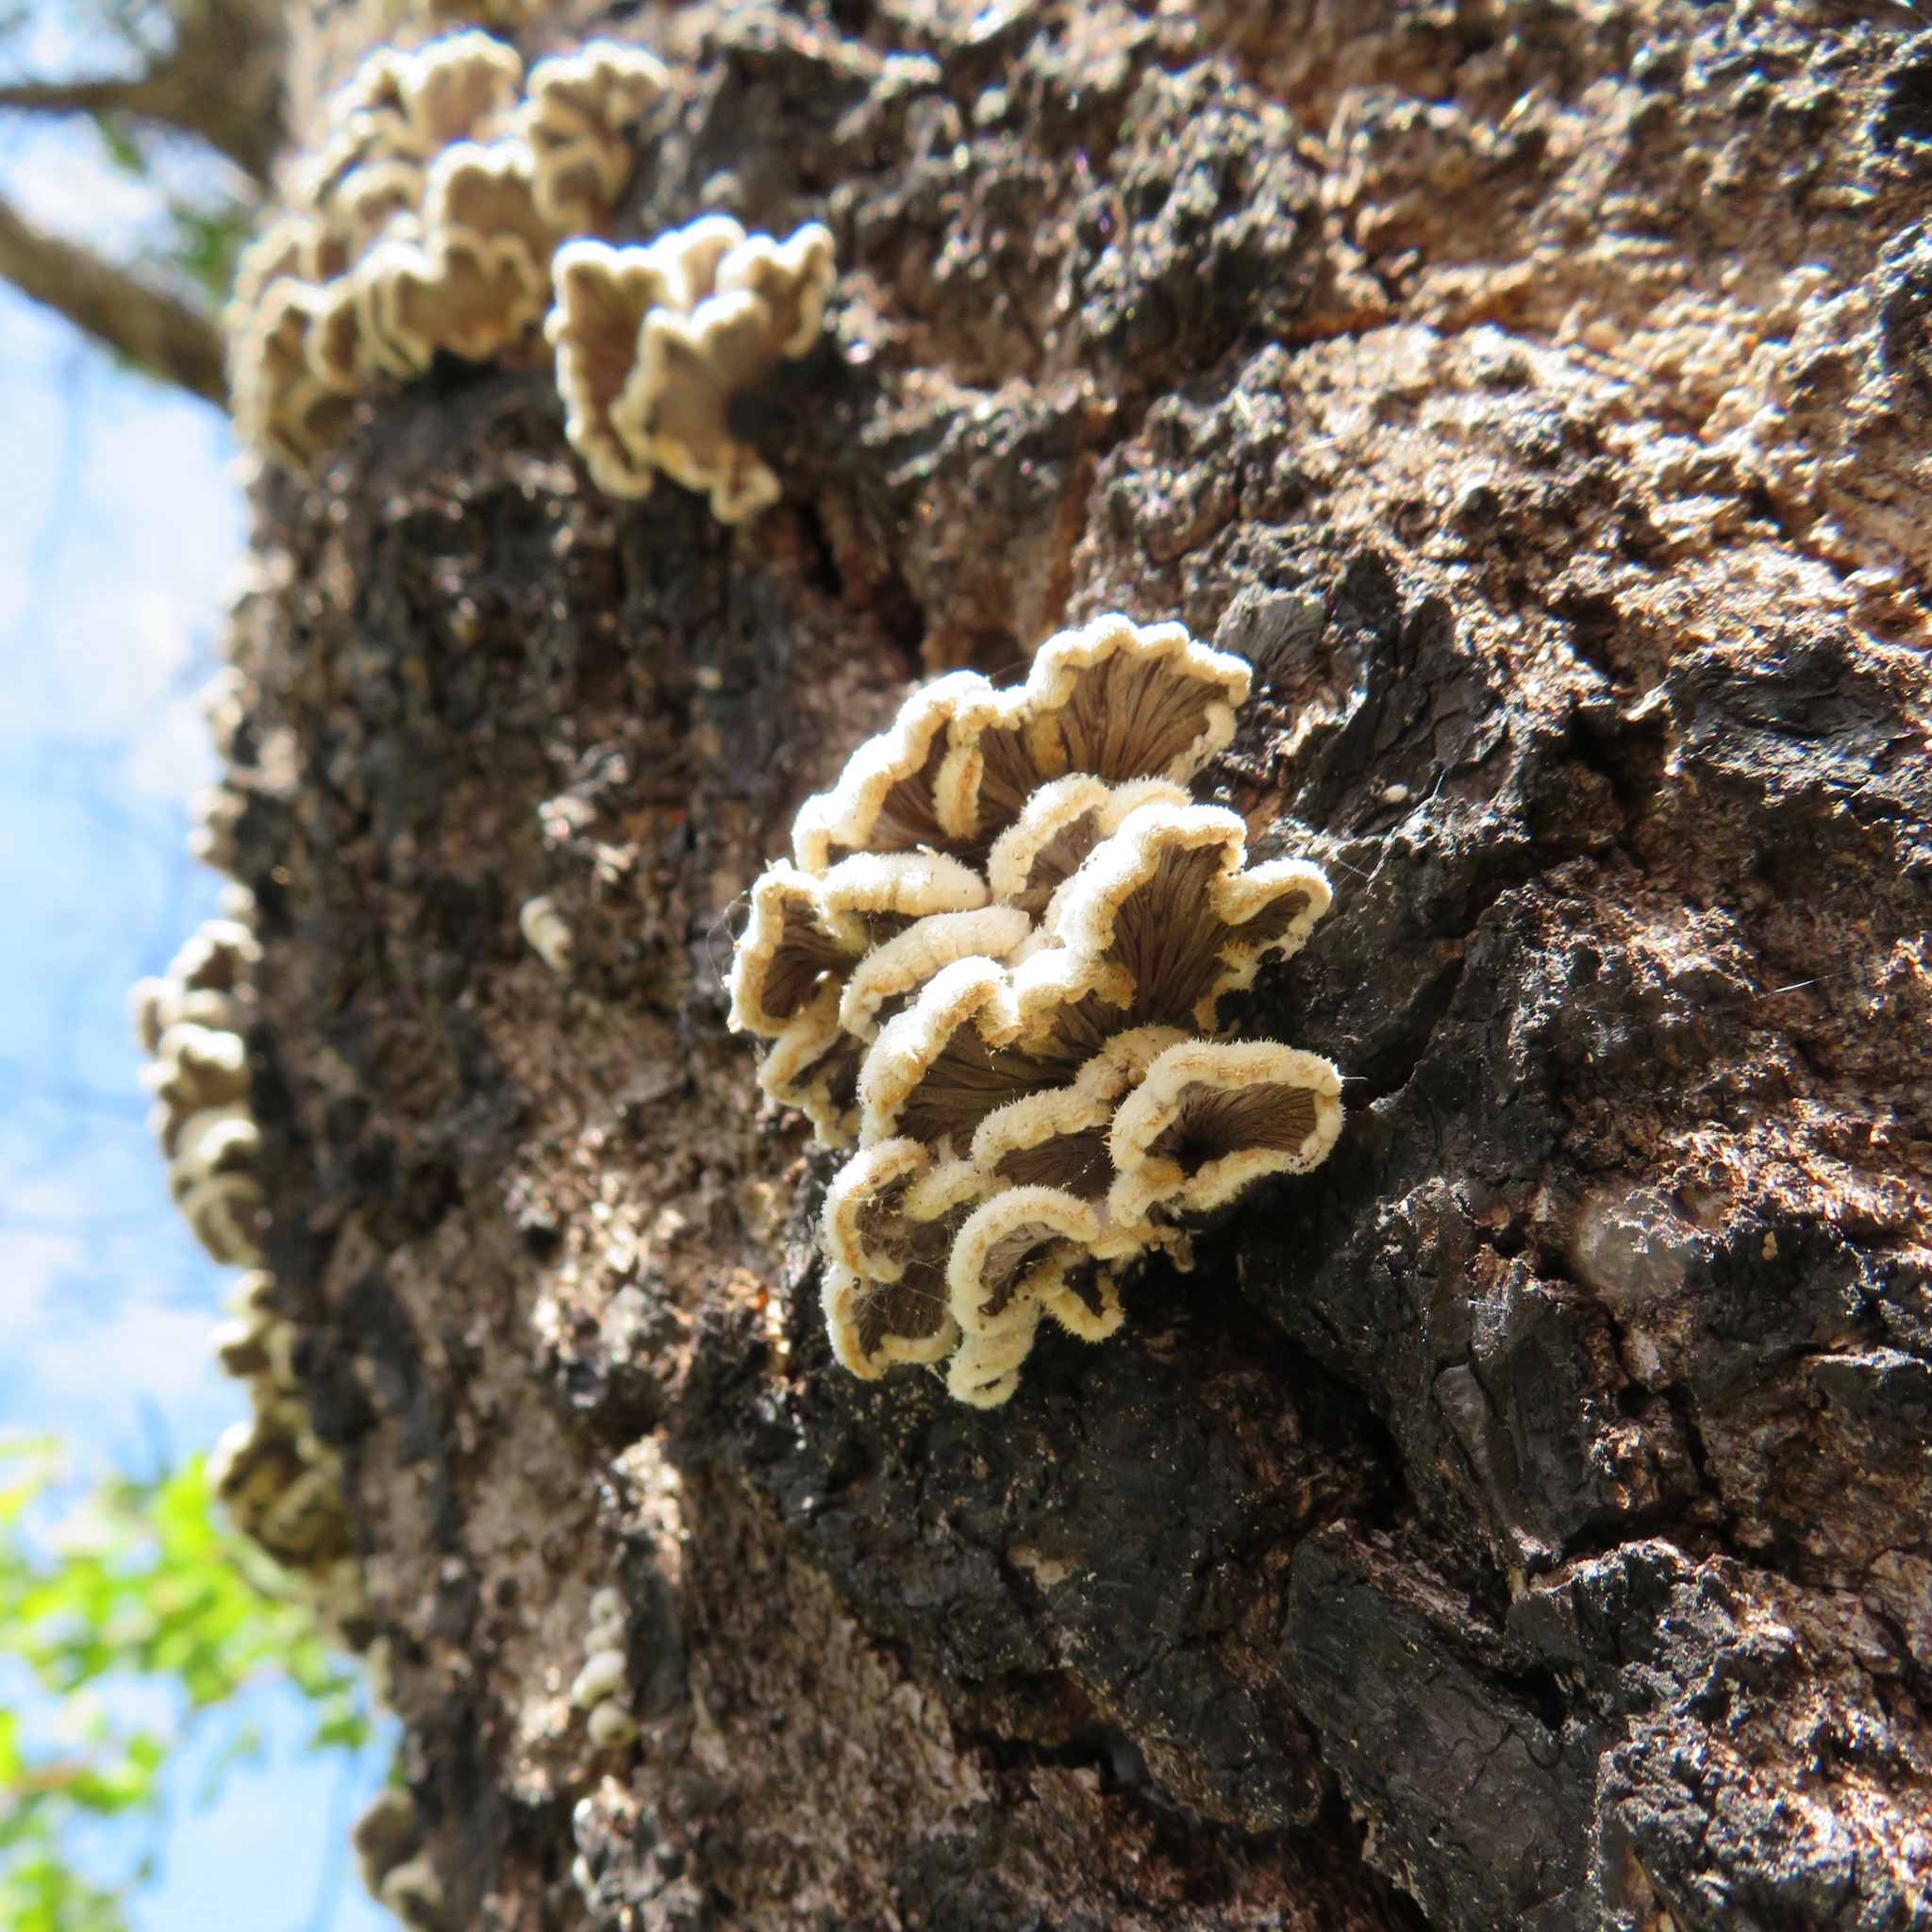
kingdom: Fungi
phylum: Basidiomycota
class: Agaricomycetes
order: Agaricales
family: Schizophyllaceae
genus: Schizophyllum
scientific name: Schizophyllum commune
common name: Common porecrust
